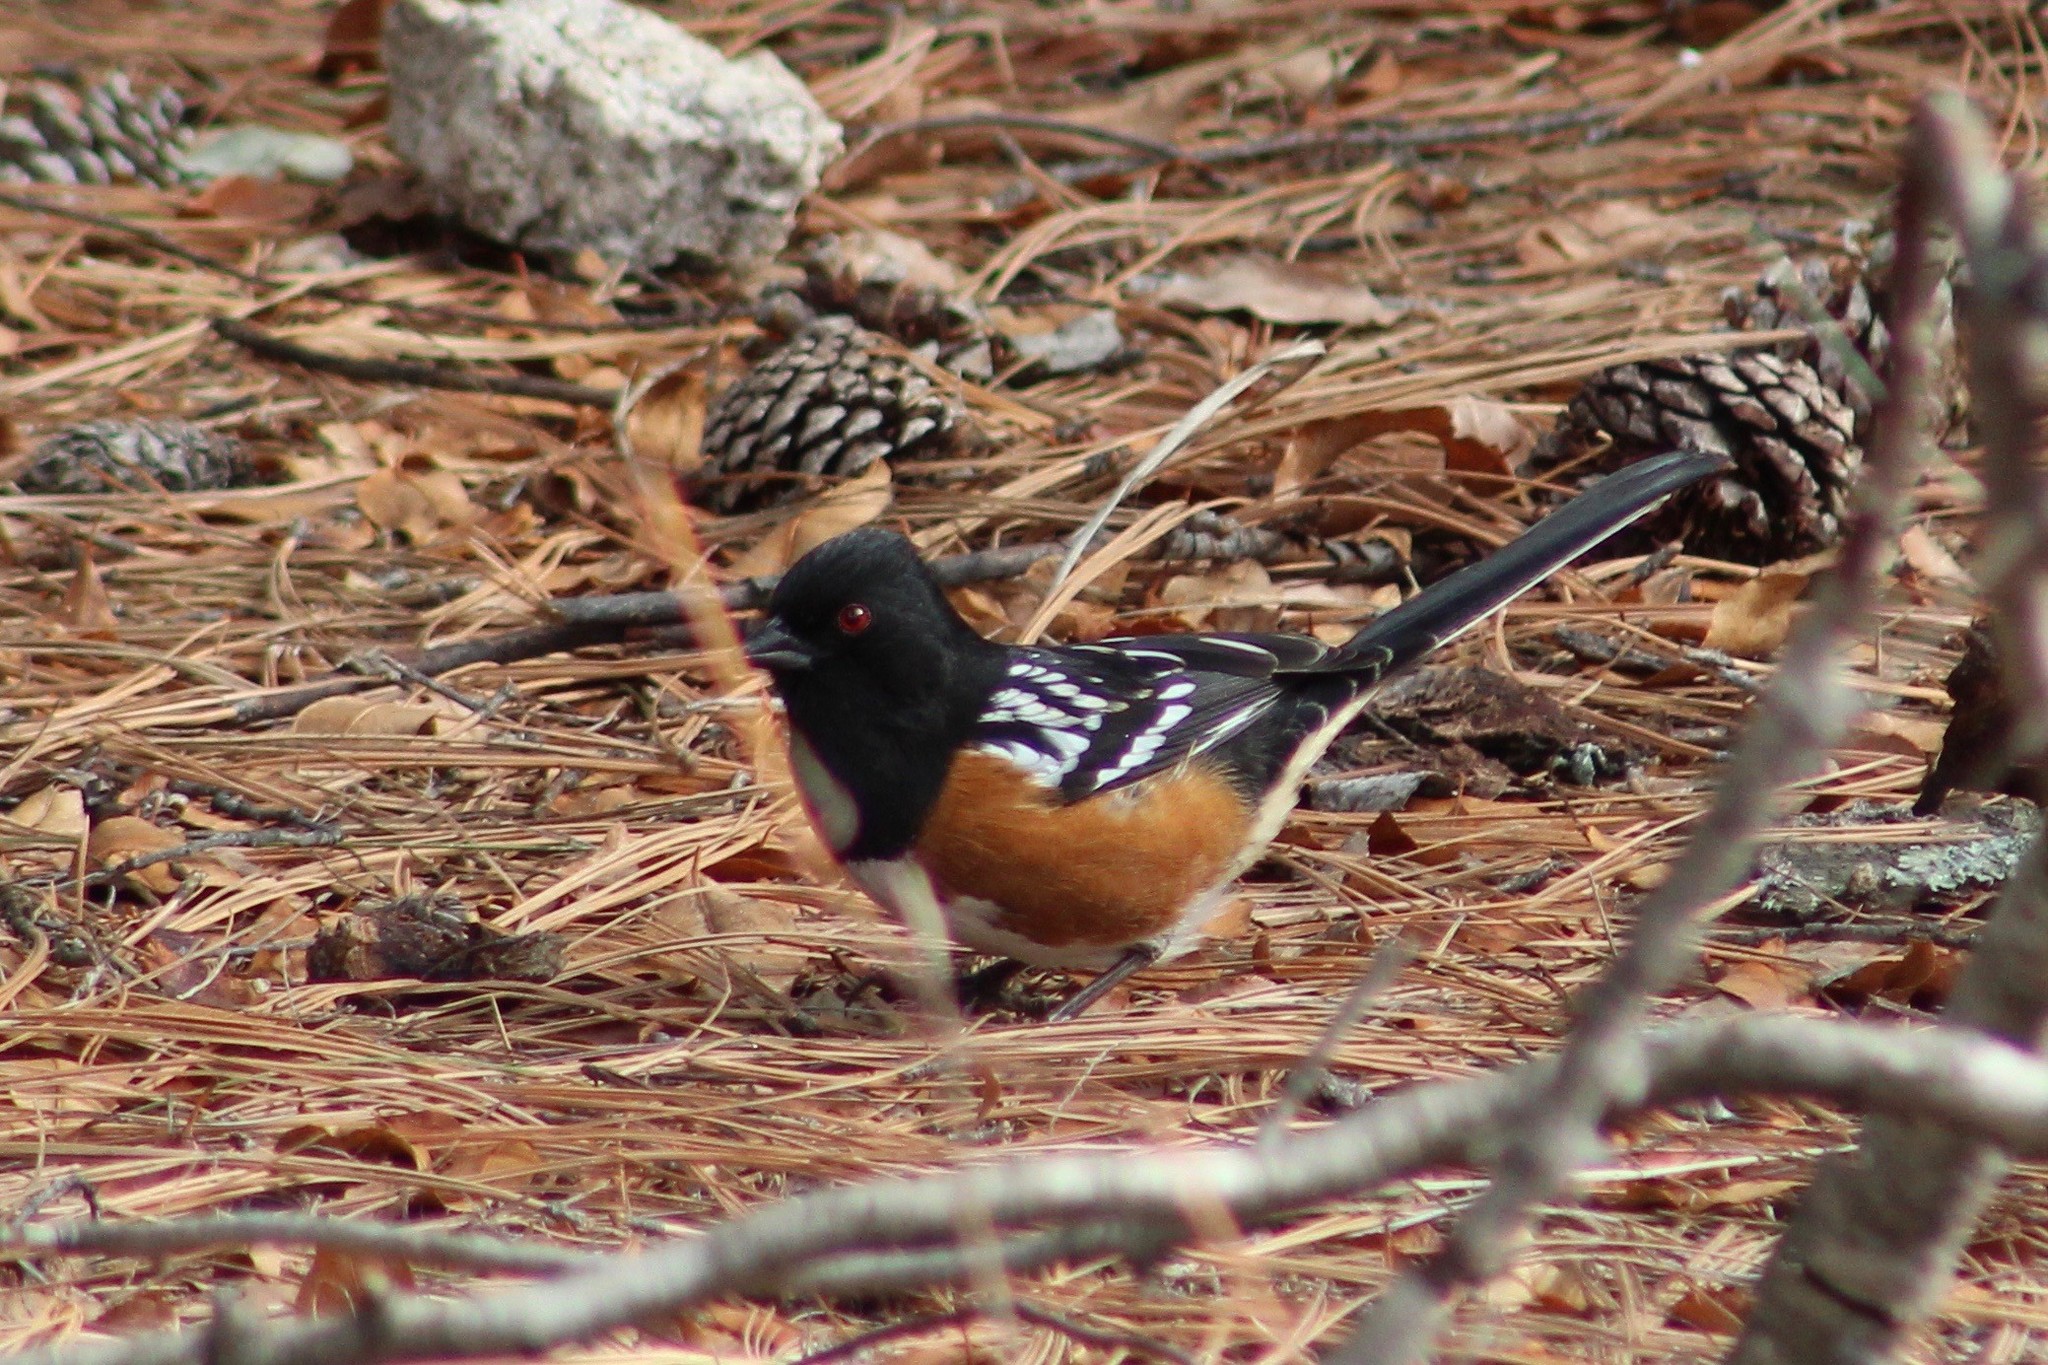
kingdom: Animalia
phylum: Chordata
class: Aves
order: Passeriformes
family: Passerellidae
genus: Pipilo
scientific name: Pipilo maculatus
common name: Spotted towhee
